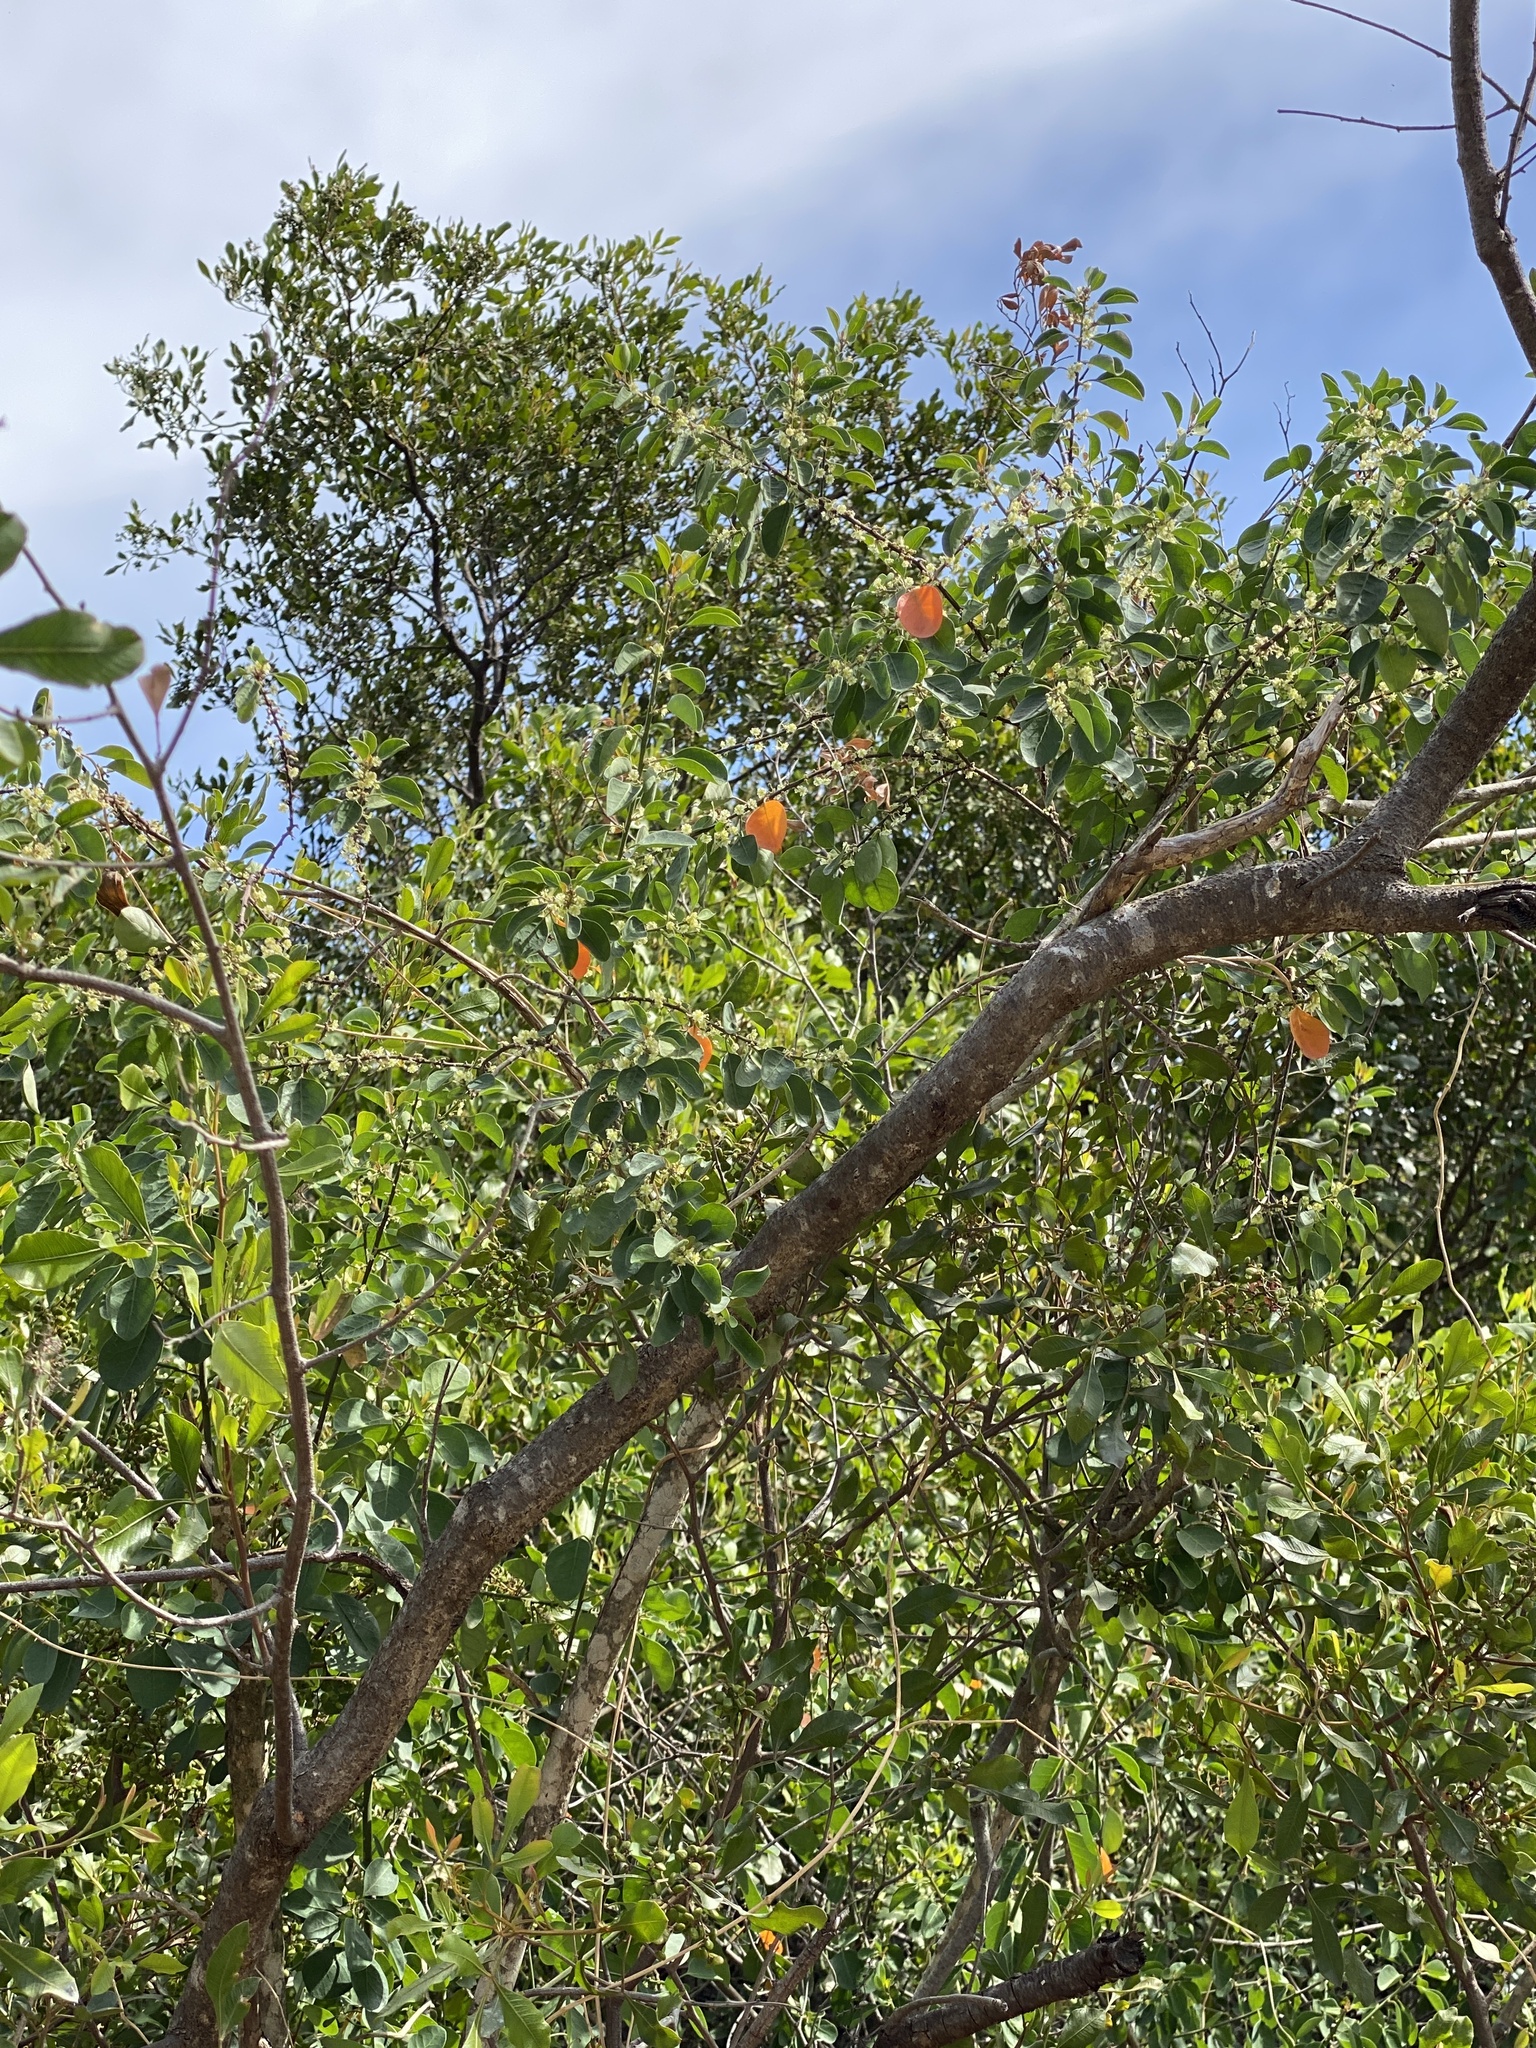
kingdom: Plantae
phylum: Tracheophyta
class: Magnoliopsida
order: Malpighiales
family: Peraceae
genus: Clutia
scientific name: Clutia pulchella
